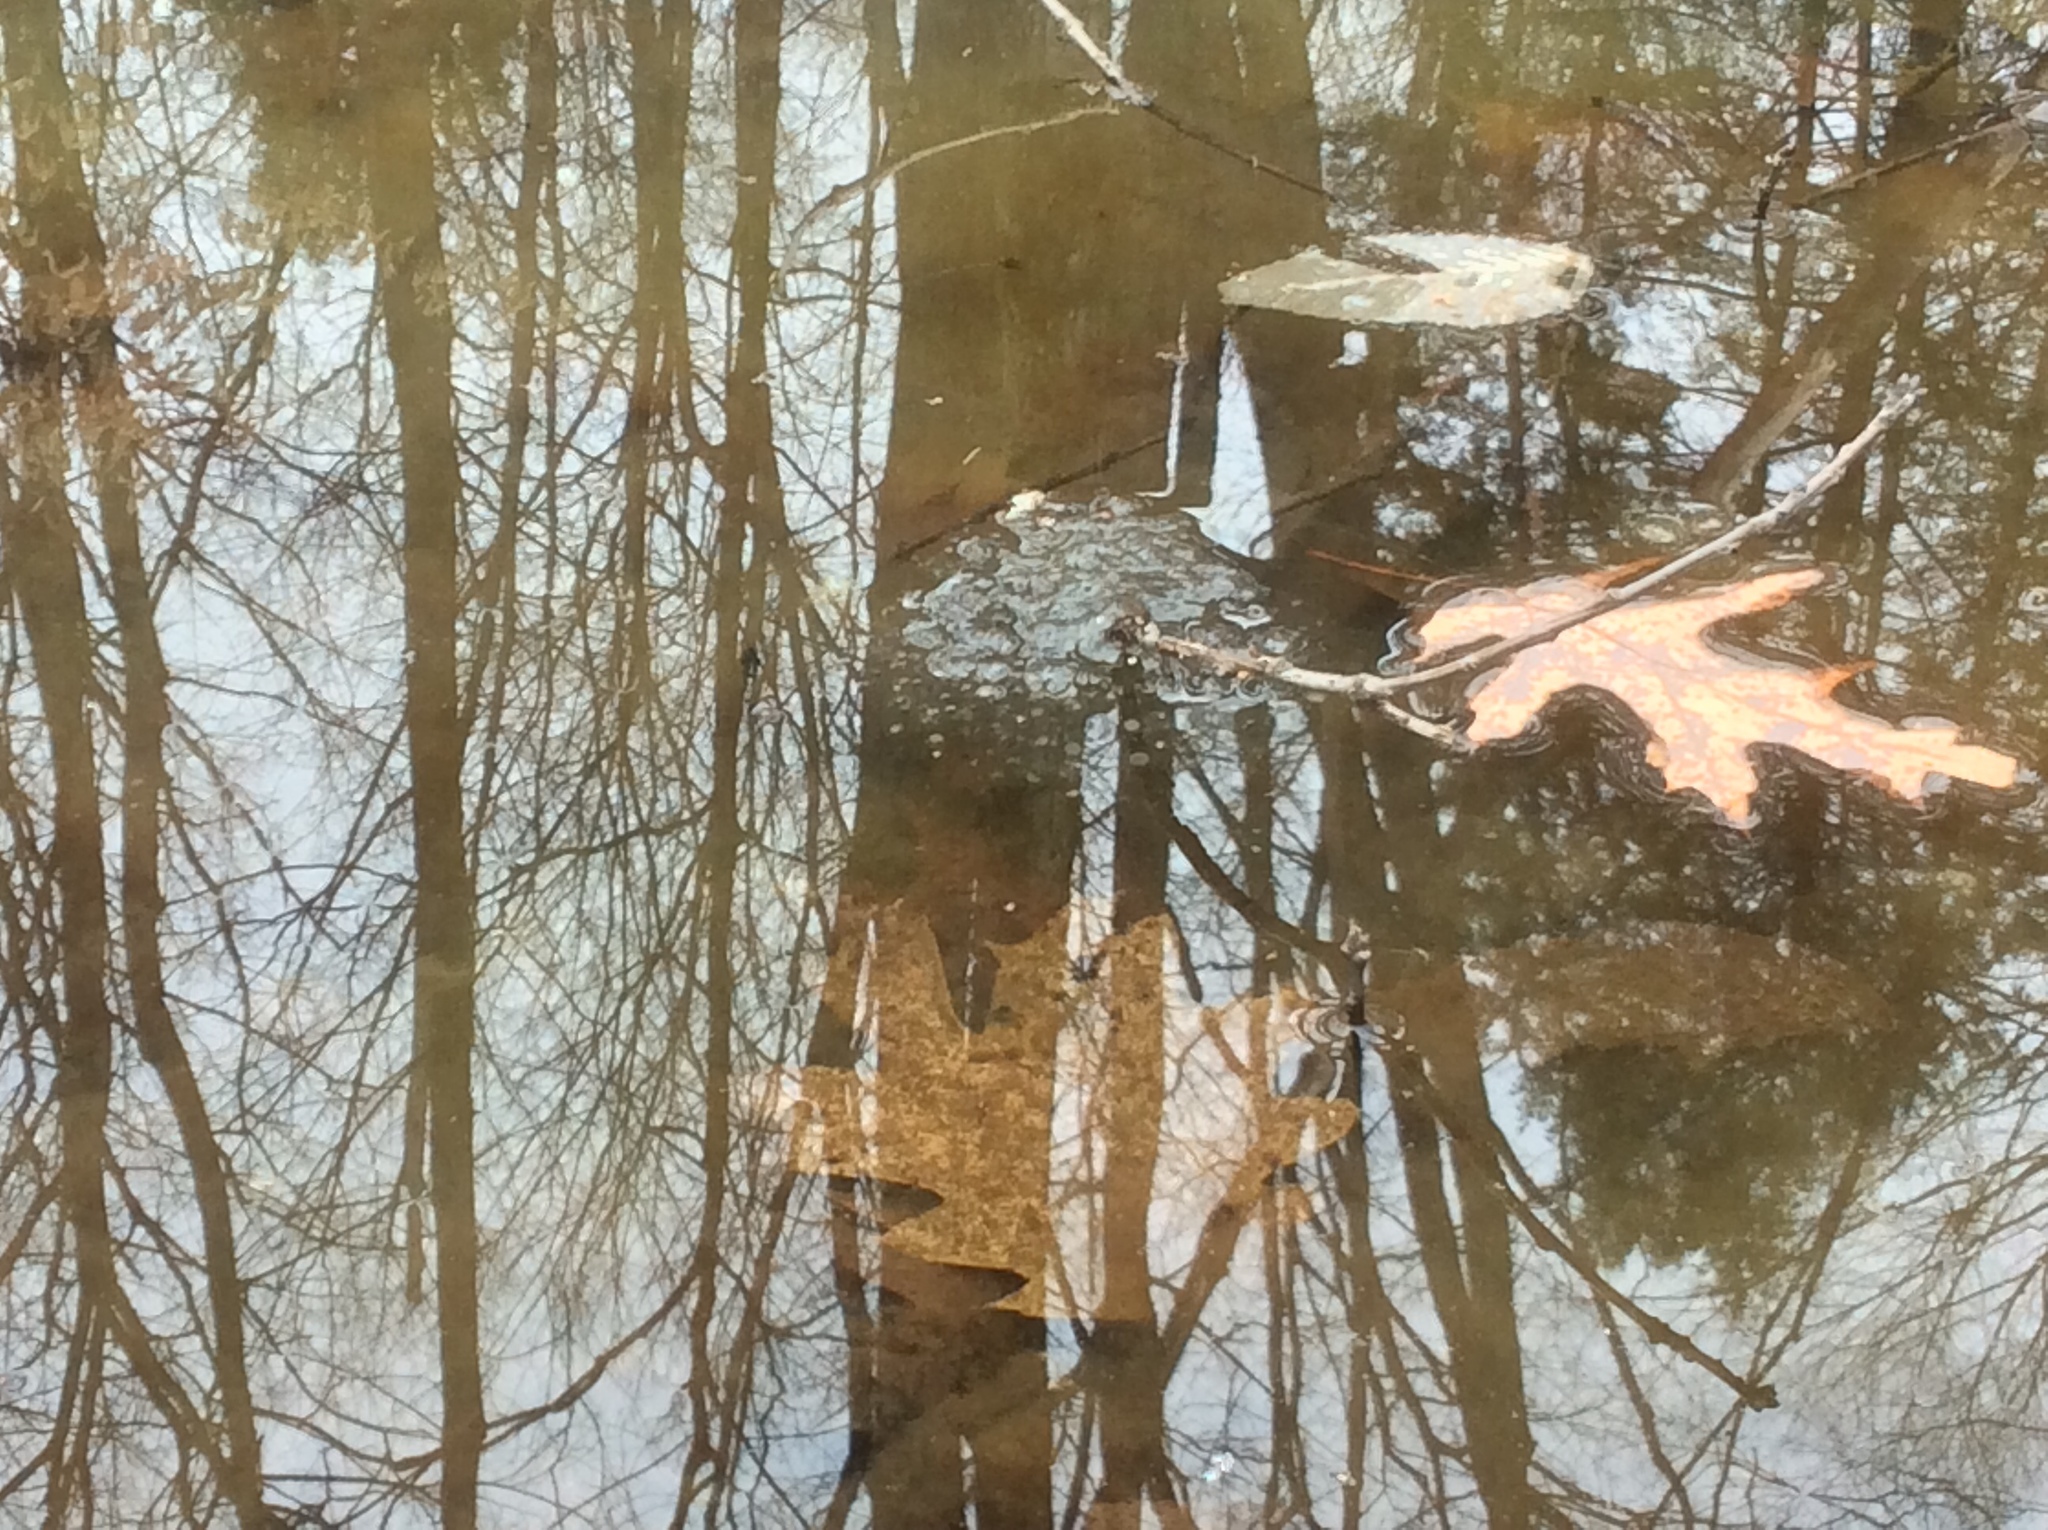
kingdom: Animalia
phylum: Chordata
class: Amphibia
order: Anura
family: Ranidae
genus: Lithobates
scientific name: Lithobates sylvaticus
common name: Wood frog
